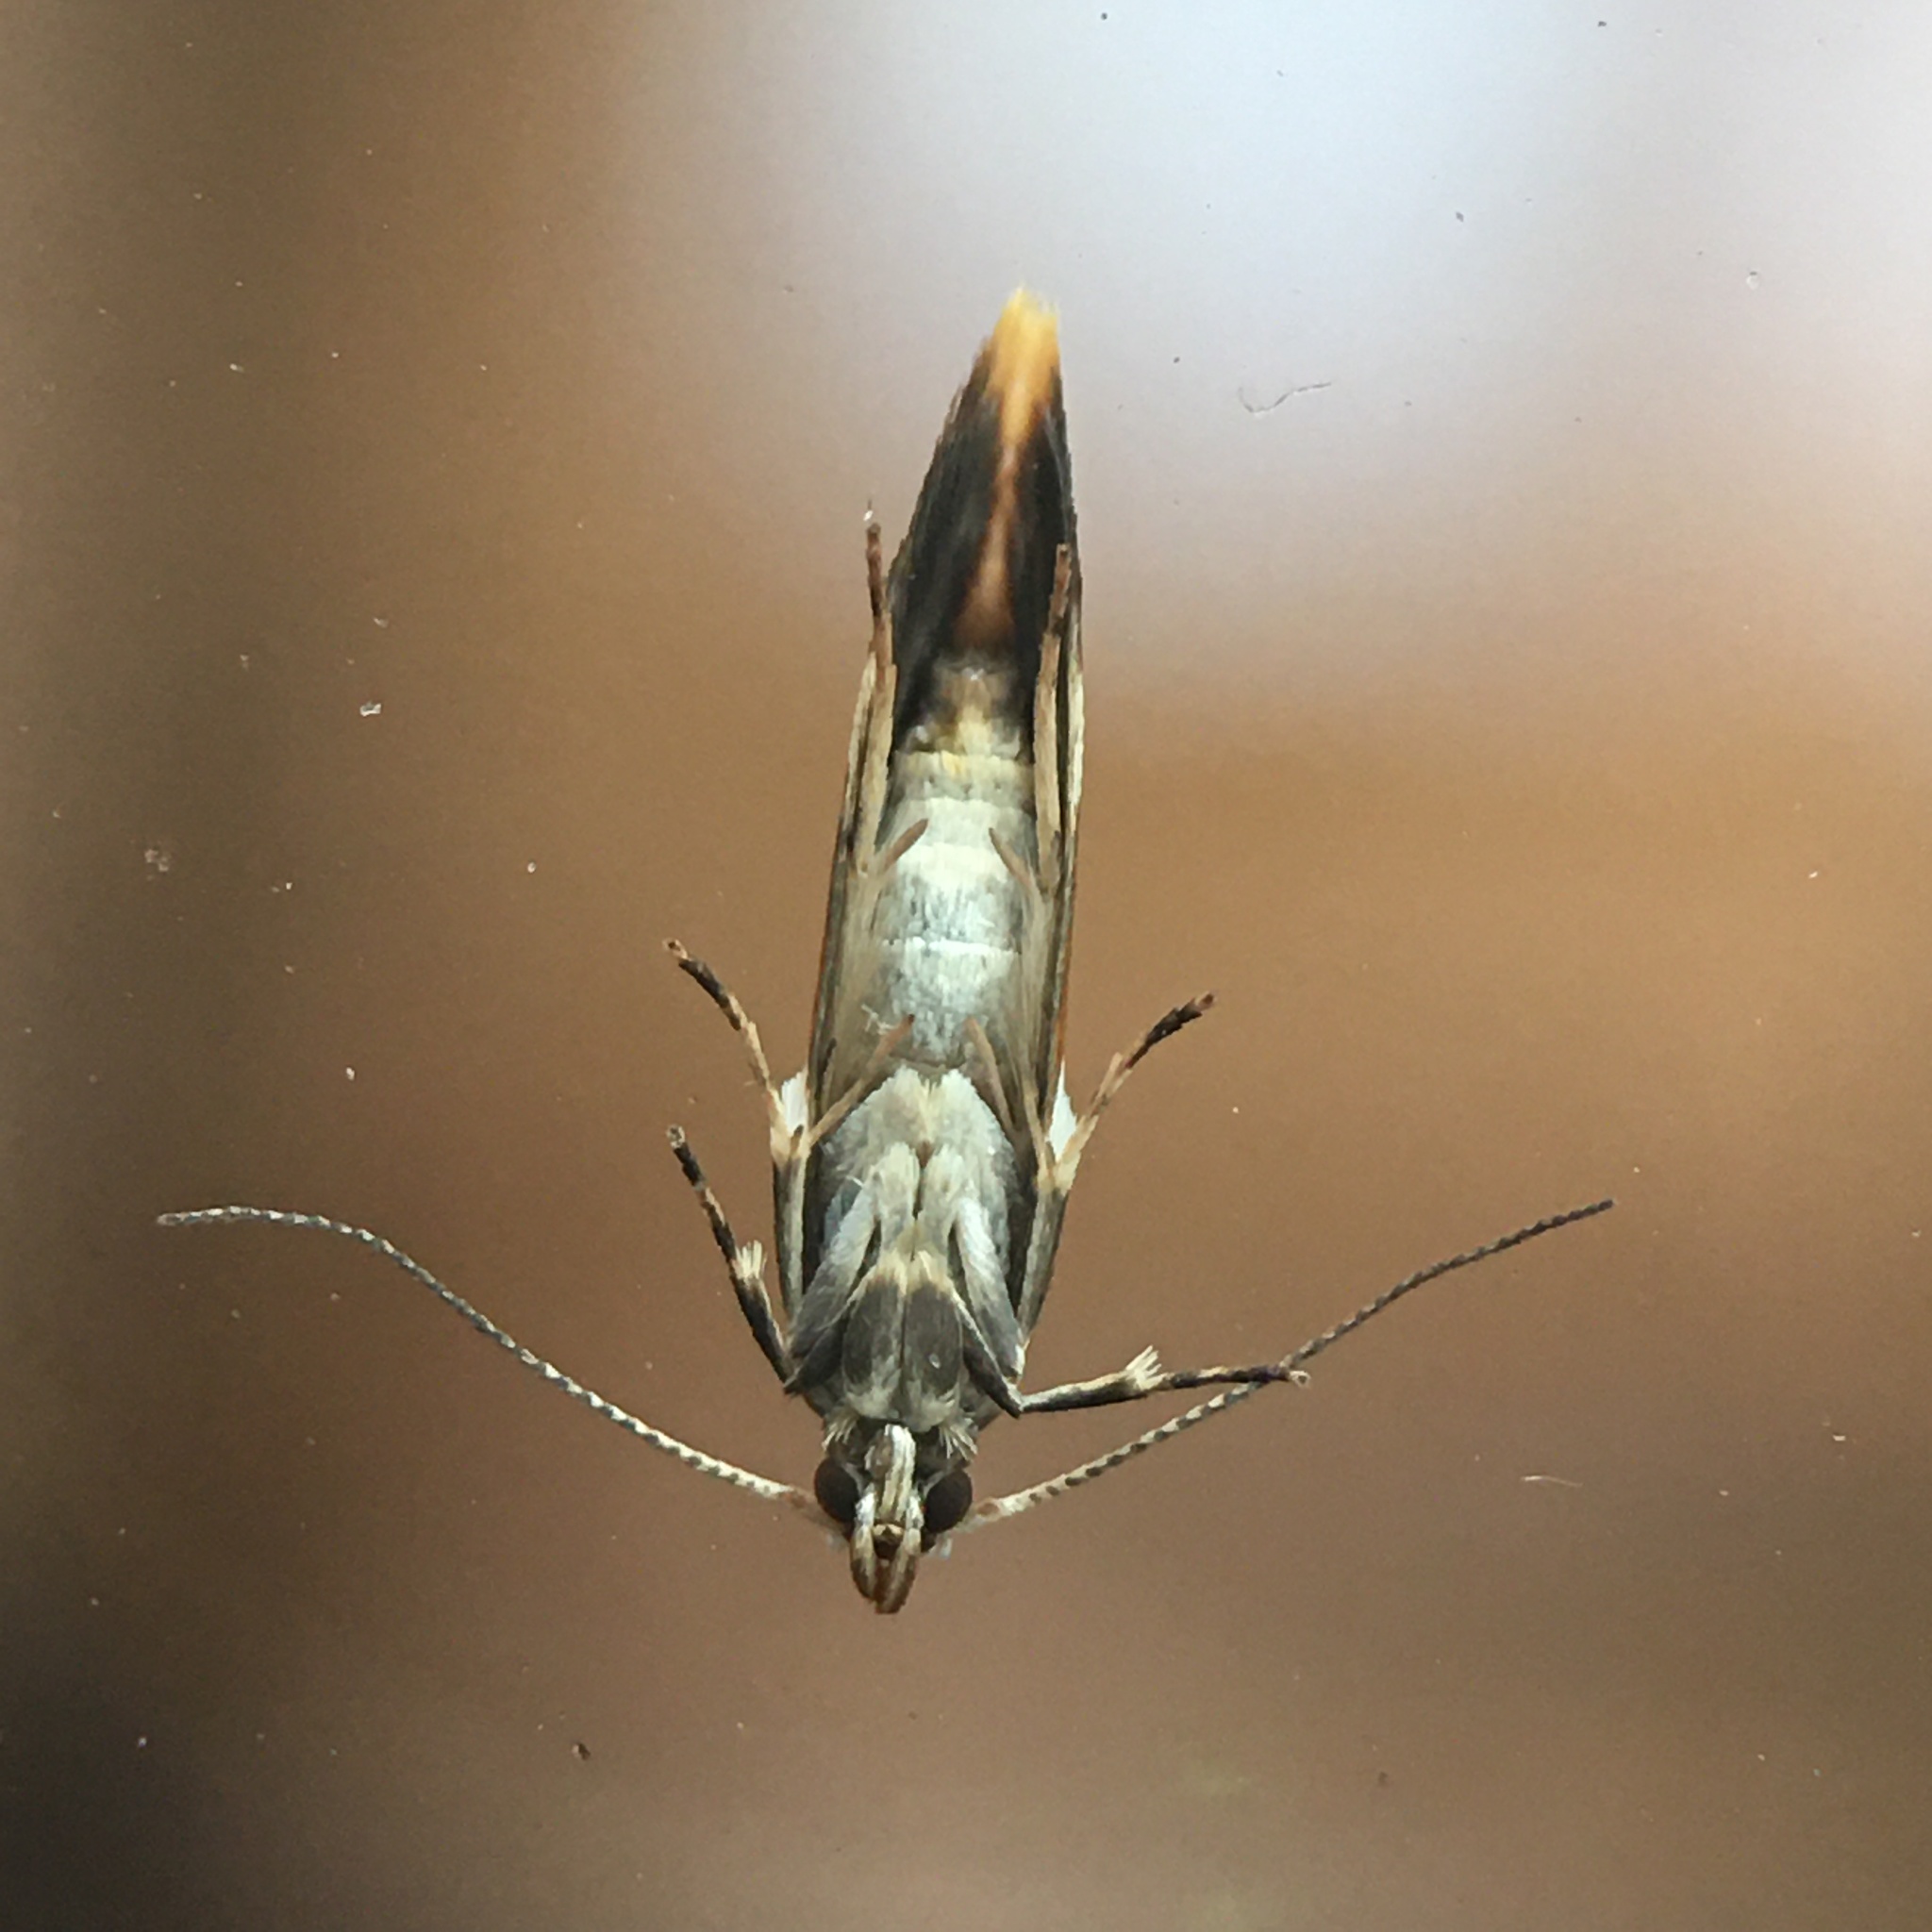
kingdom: Animalia
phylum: Arthropoda
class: Insecta
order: Lepidoptera
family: Oecophoridae
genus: Promalactis
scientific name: Promalactis suzukiella
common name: Moth
